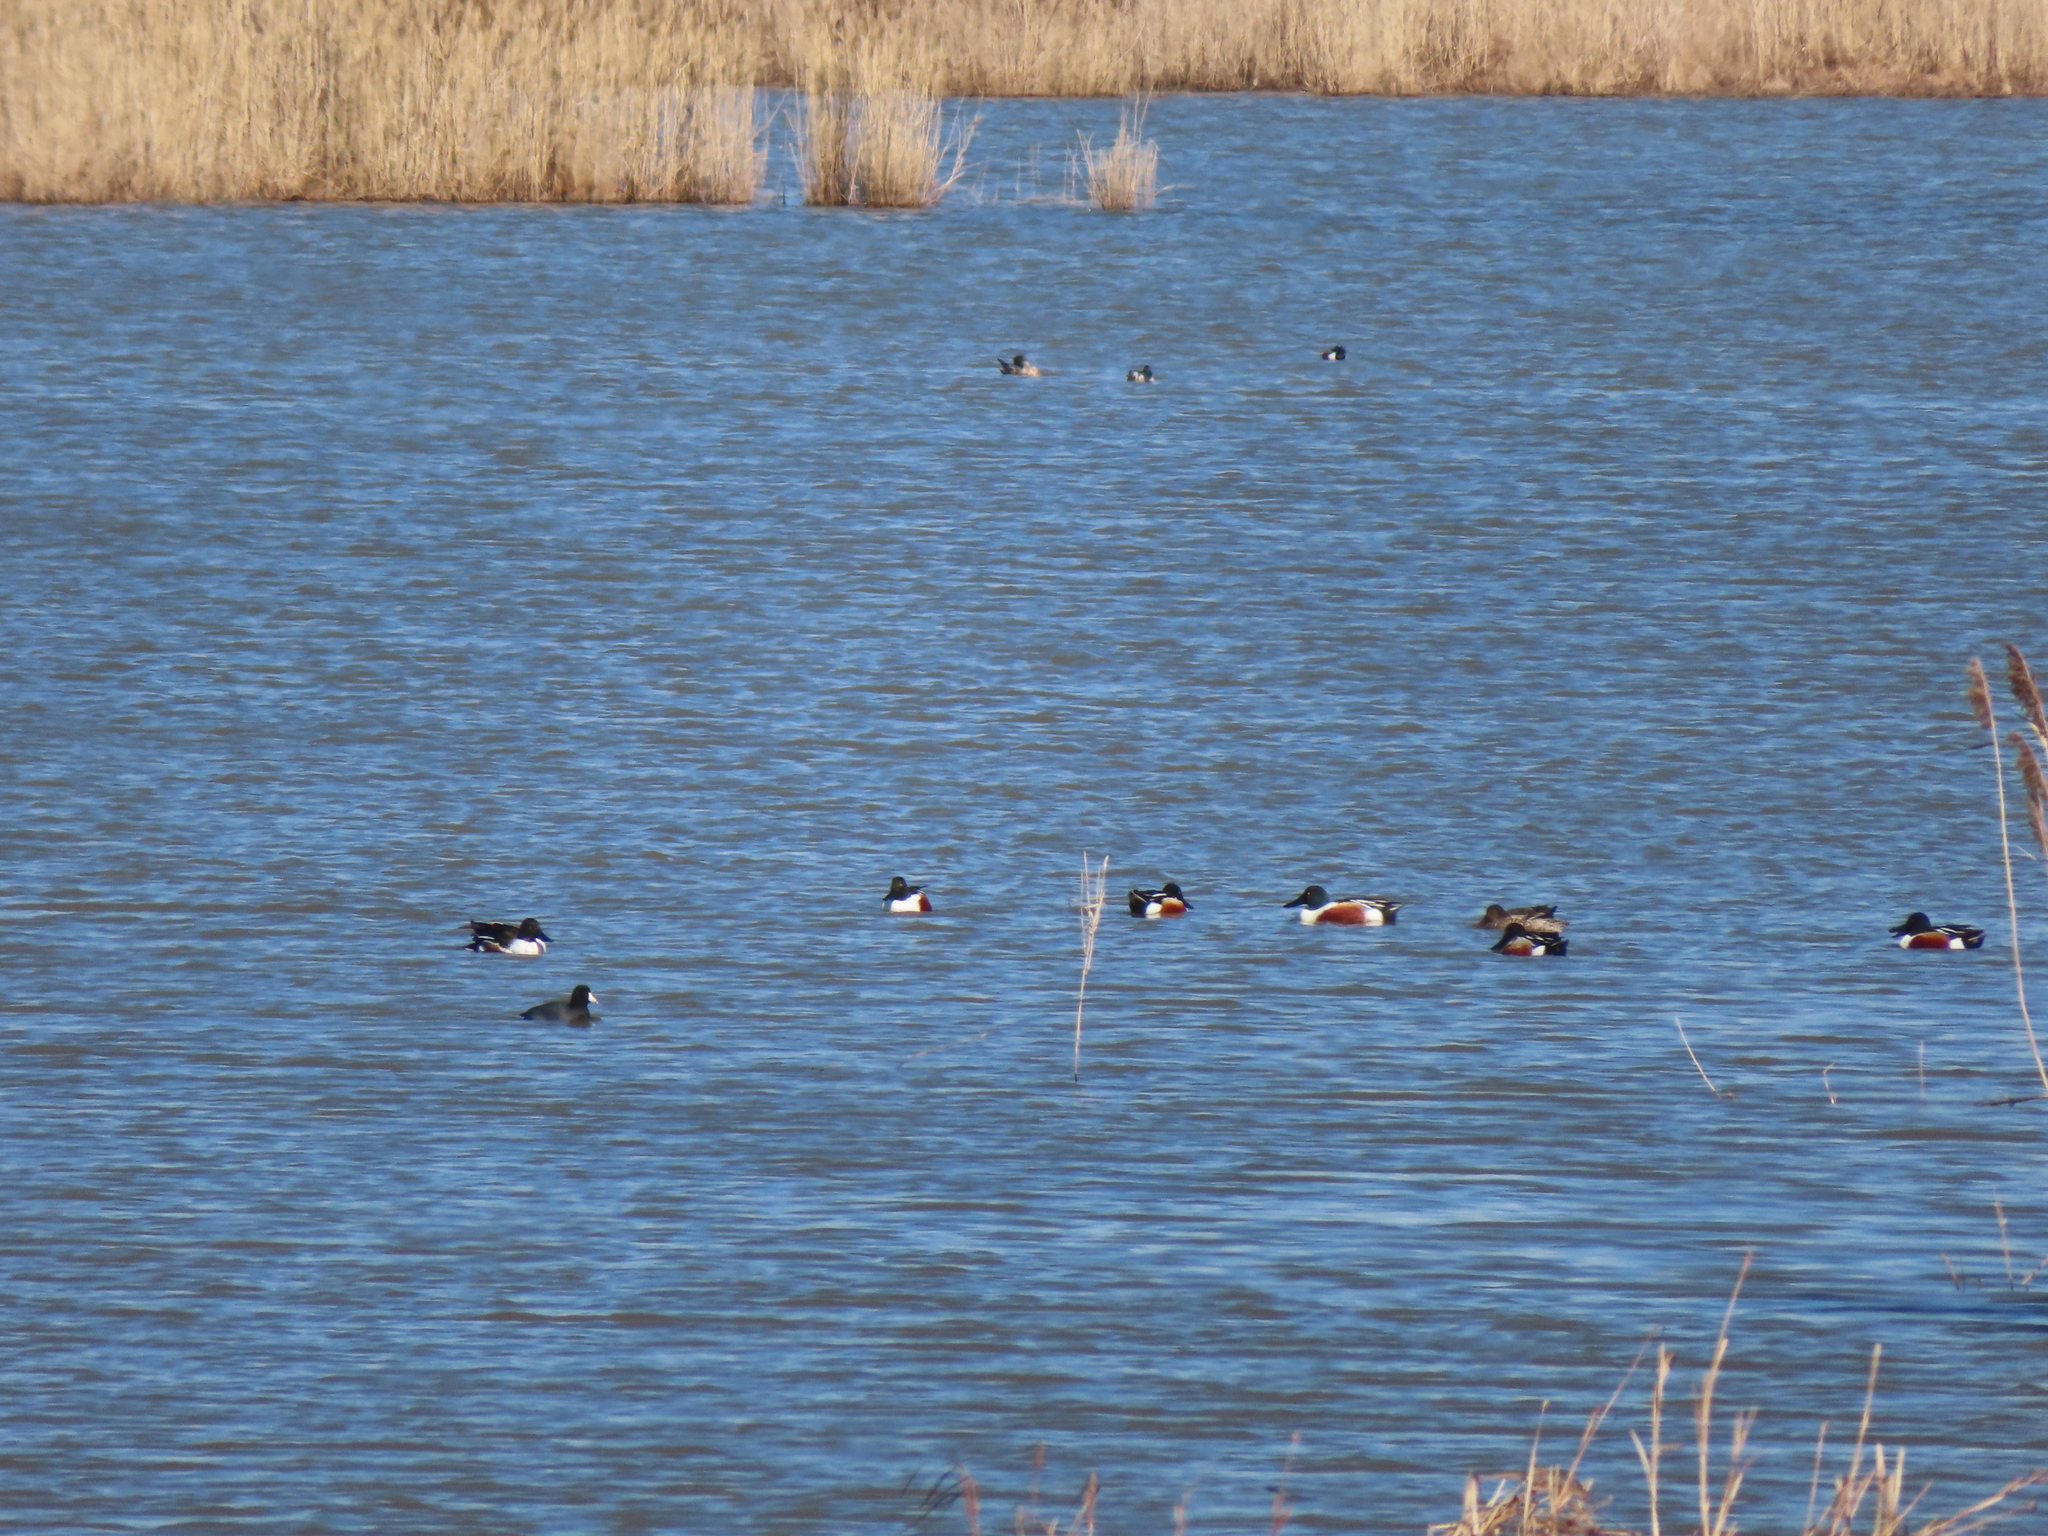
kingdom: Animalia
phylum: Chordata
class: Aves
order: Anseriformes
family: Anatidae
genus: Spatula
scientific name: Spatula clypeata
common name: Northern shoveler
